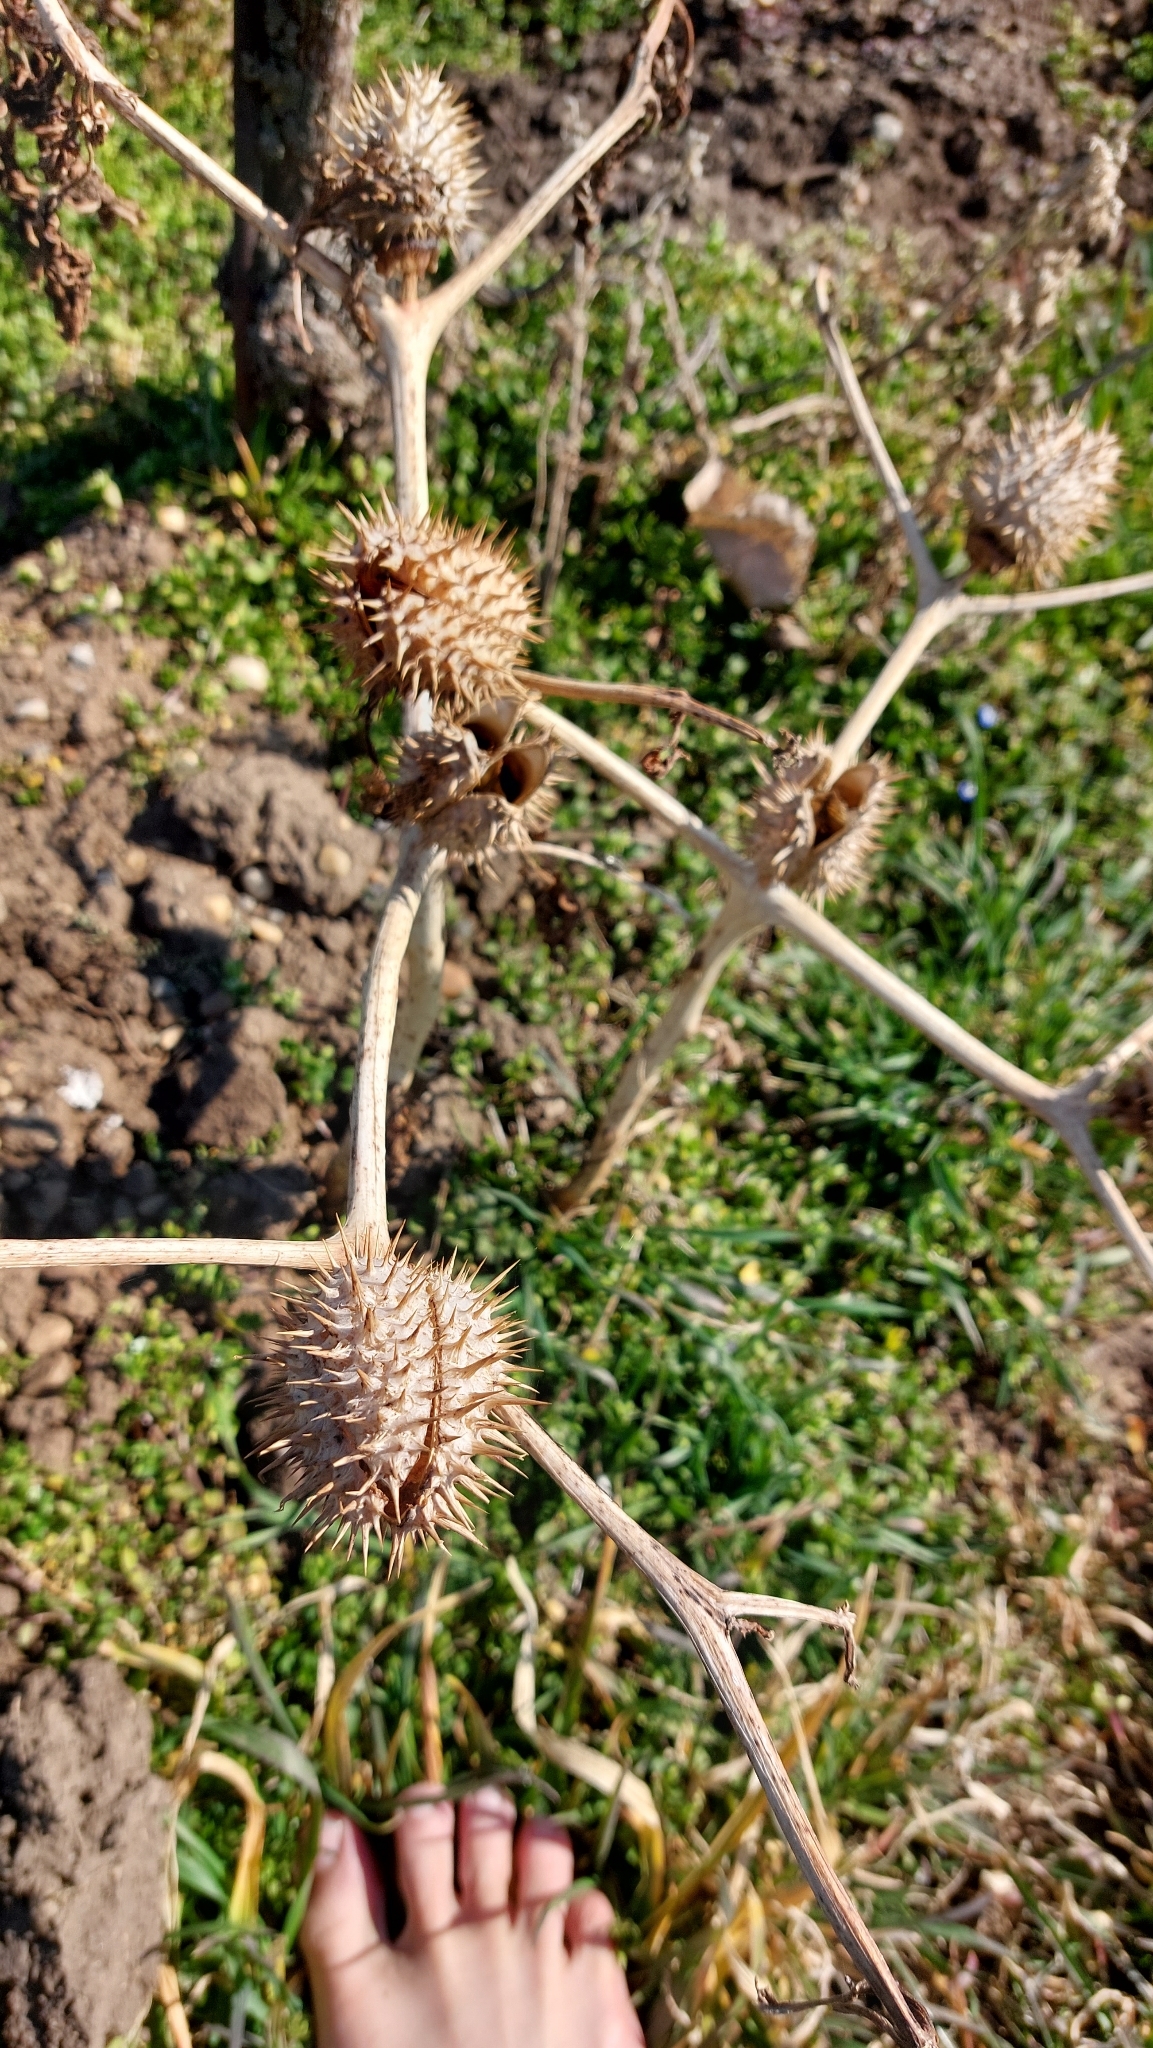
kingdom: Plantae
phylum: Tracheophyta
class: Magnoliopsida
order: Solanales
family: Solanaceae
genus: Datura
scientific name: Datura stramonium
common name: Thorn-apple
